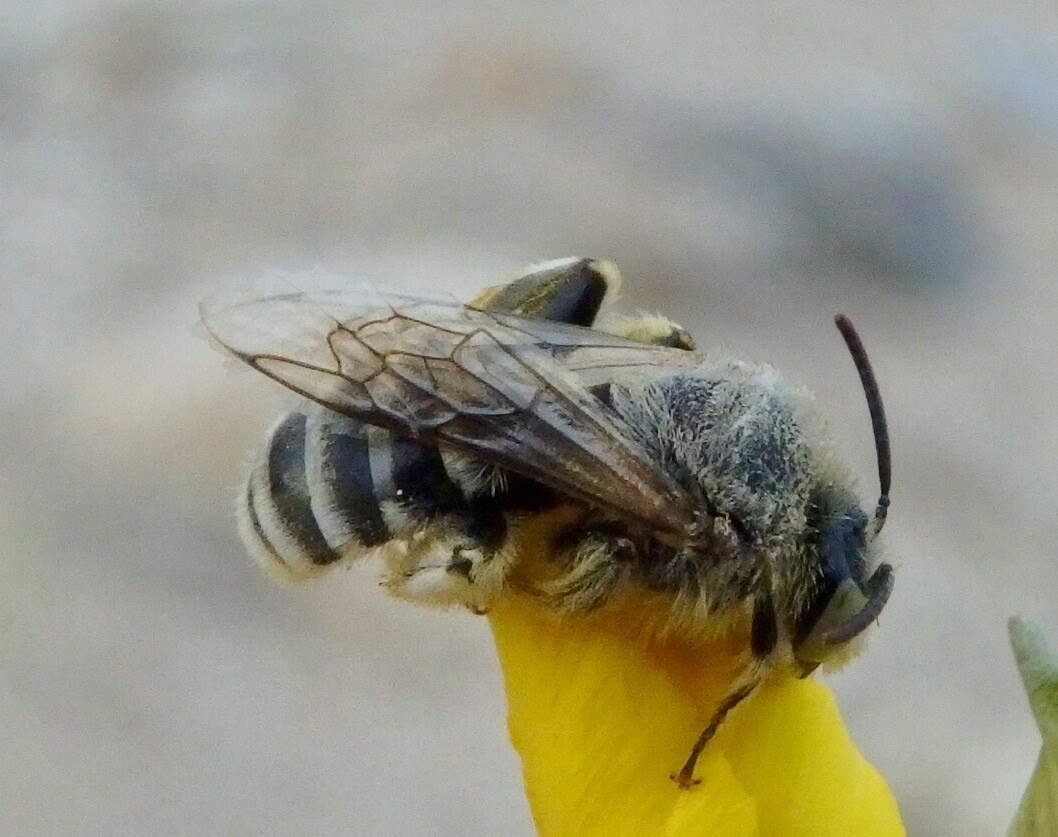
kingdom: Animalia
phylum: Arthropoda
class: Insecta
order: Hymenoptera
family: Melittidae
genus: Hesperapis
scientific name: Hesperapis
